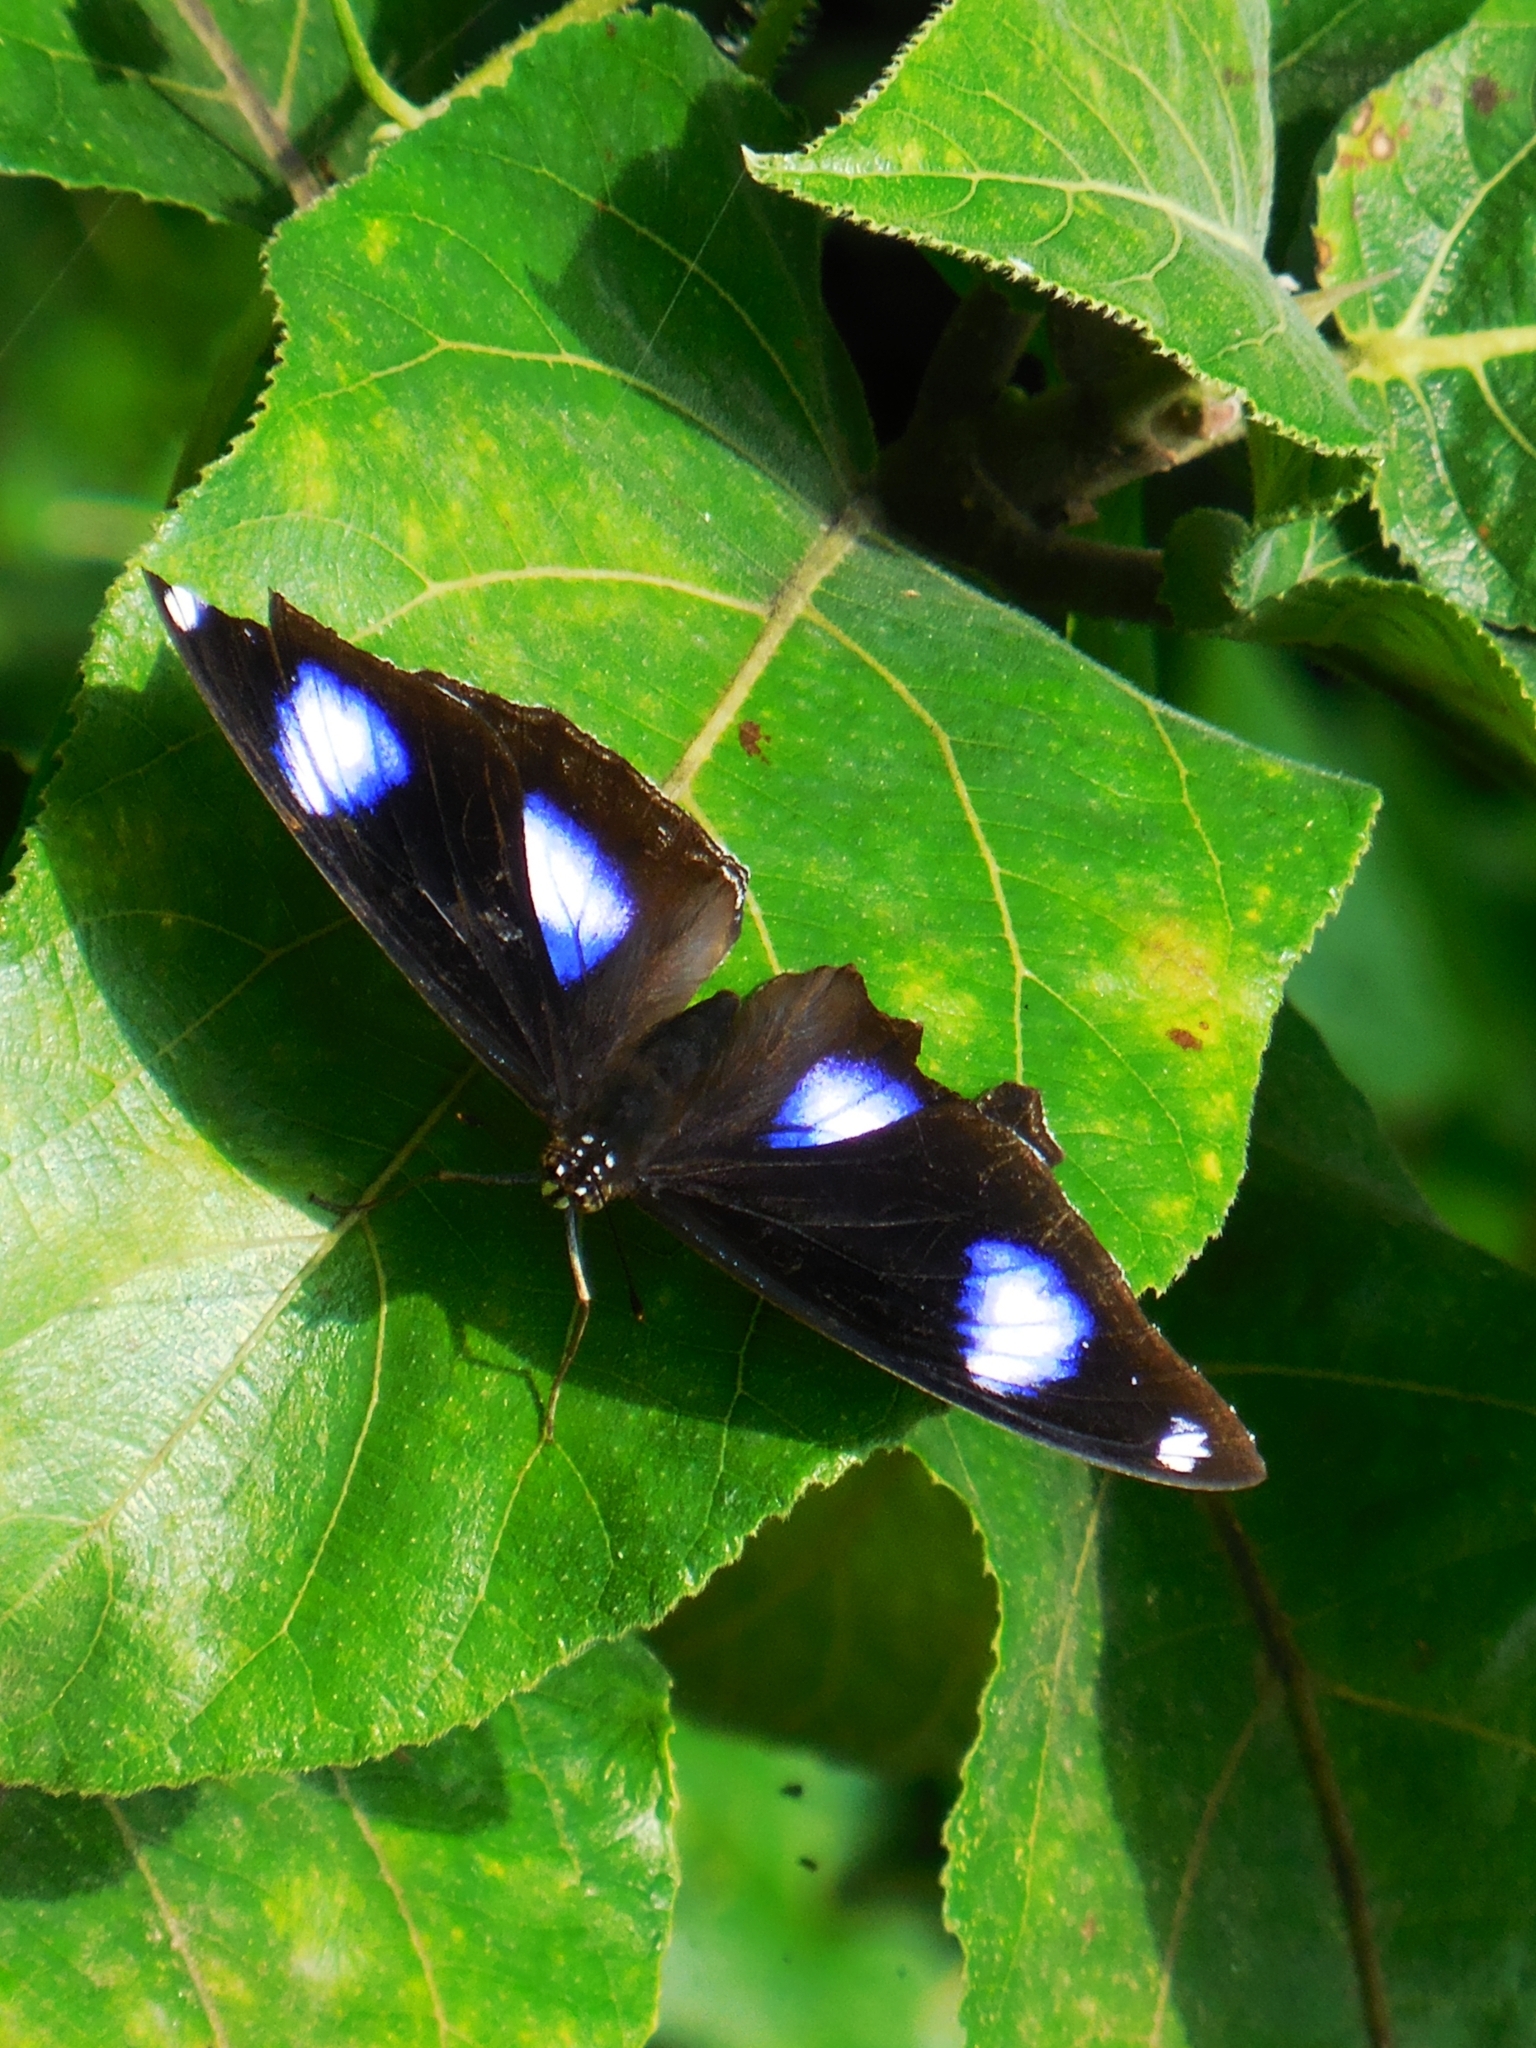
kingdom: Animalia
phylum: Arthropoda
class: Insecta
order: Lepidoptera
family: Nymphalidae
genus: Hypolimnas
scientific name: Hypolimnas bolina
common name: Great eggfly
